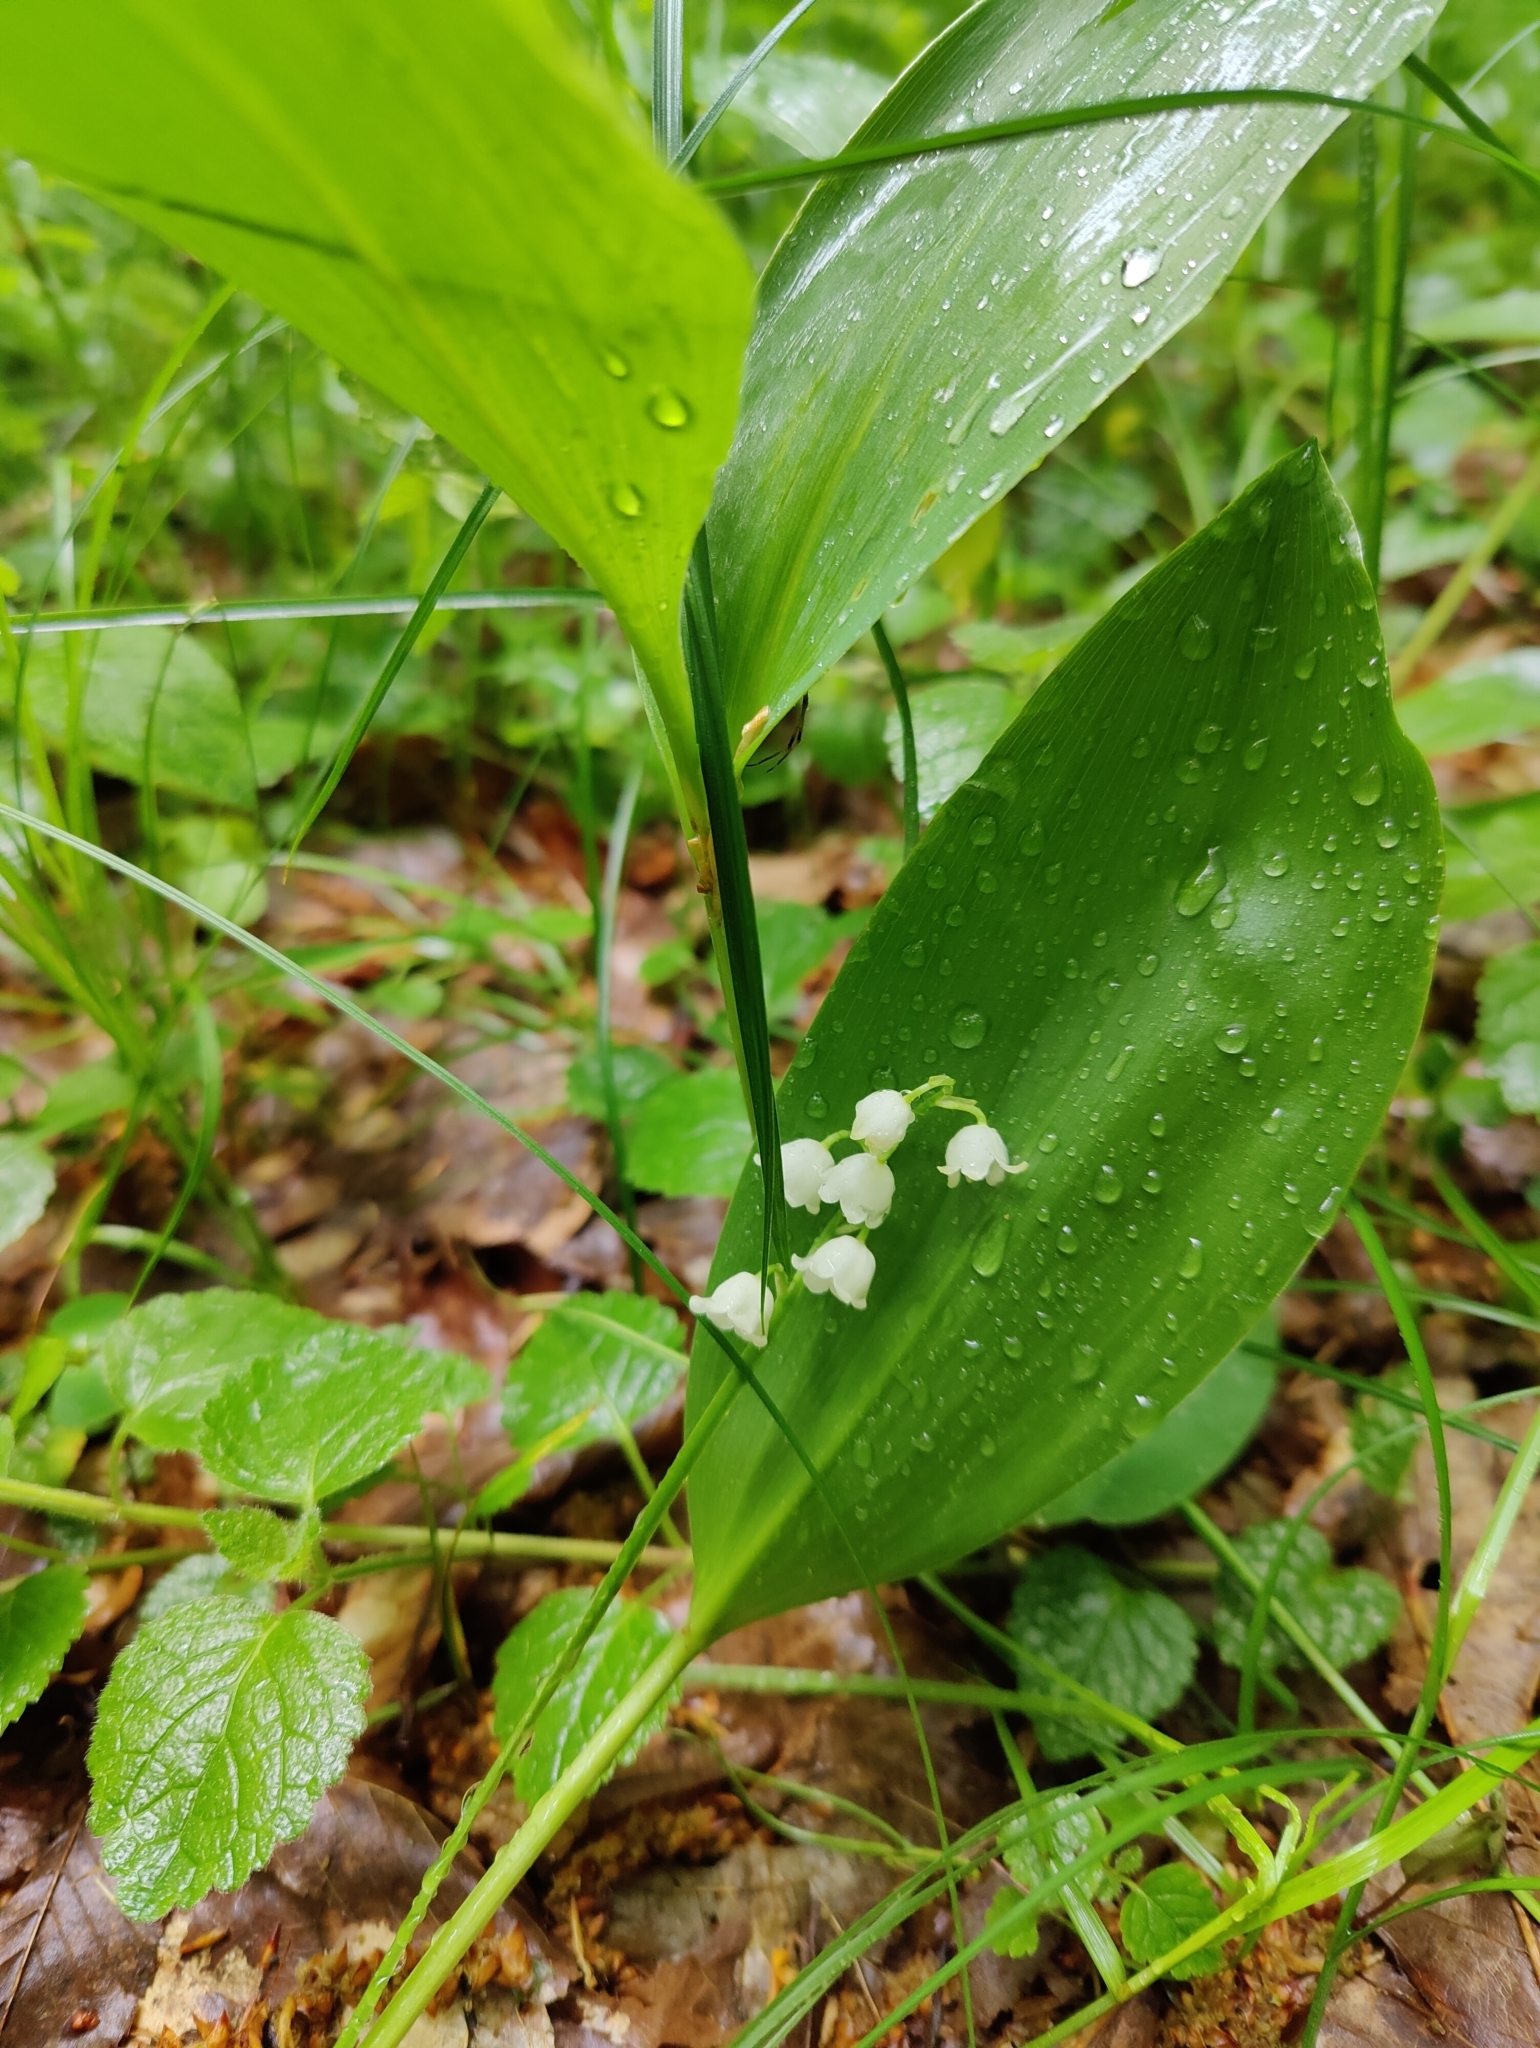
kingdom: Plantae
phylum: Tracheophyta
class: Liliopsida
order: Asparagales
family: Asparagaceae
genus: Convallaria
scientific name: Convallaria majalis
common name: Lily-of-the-valley
